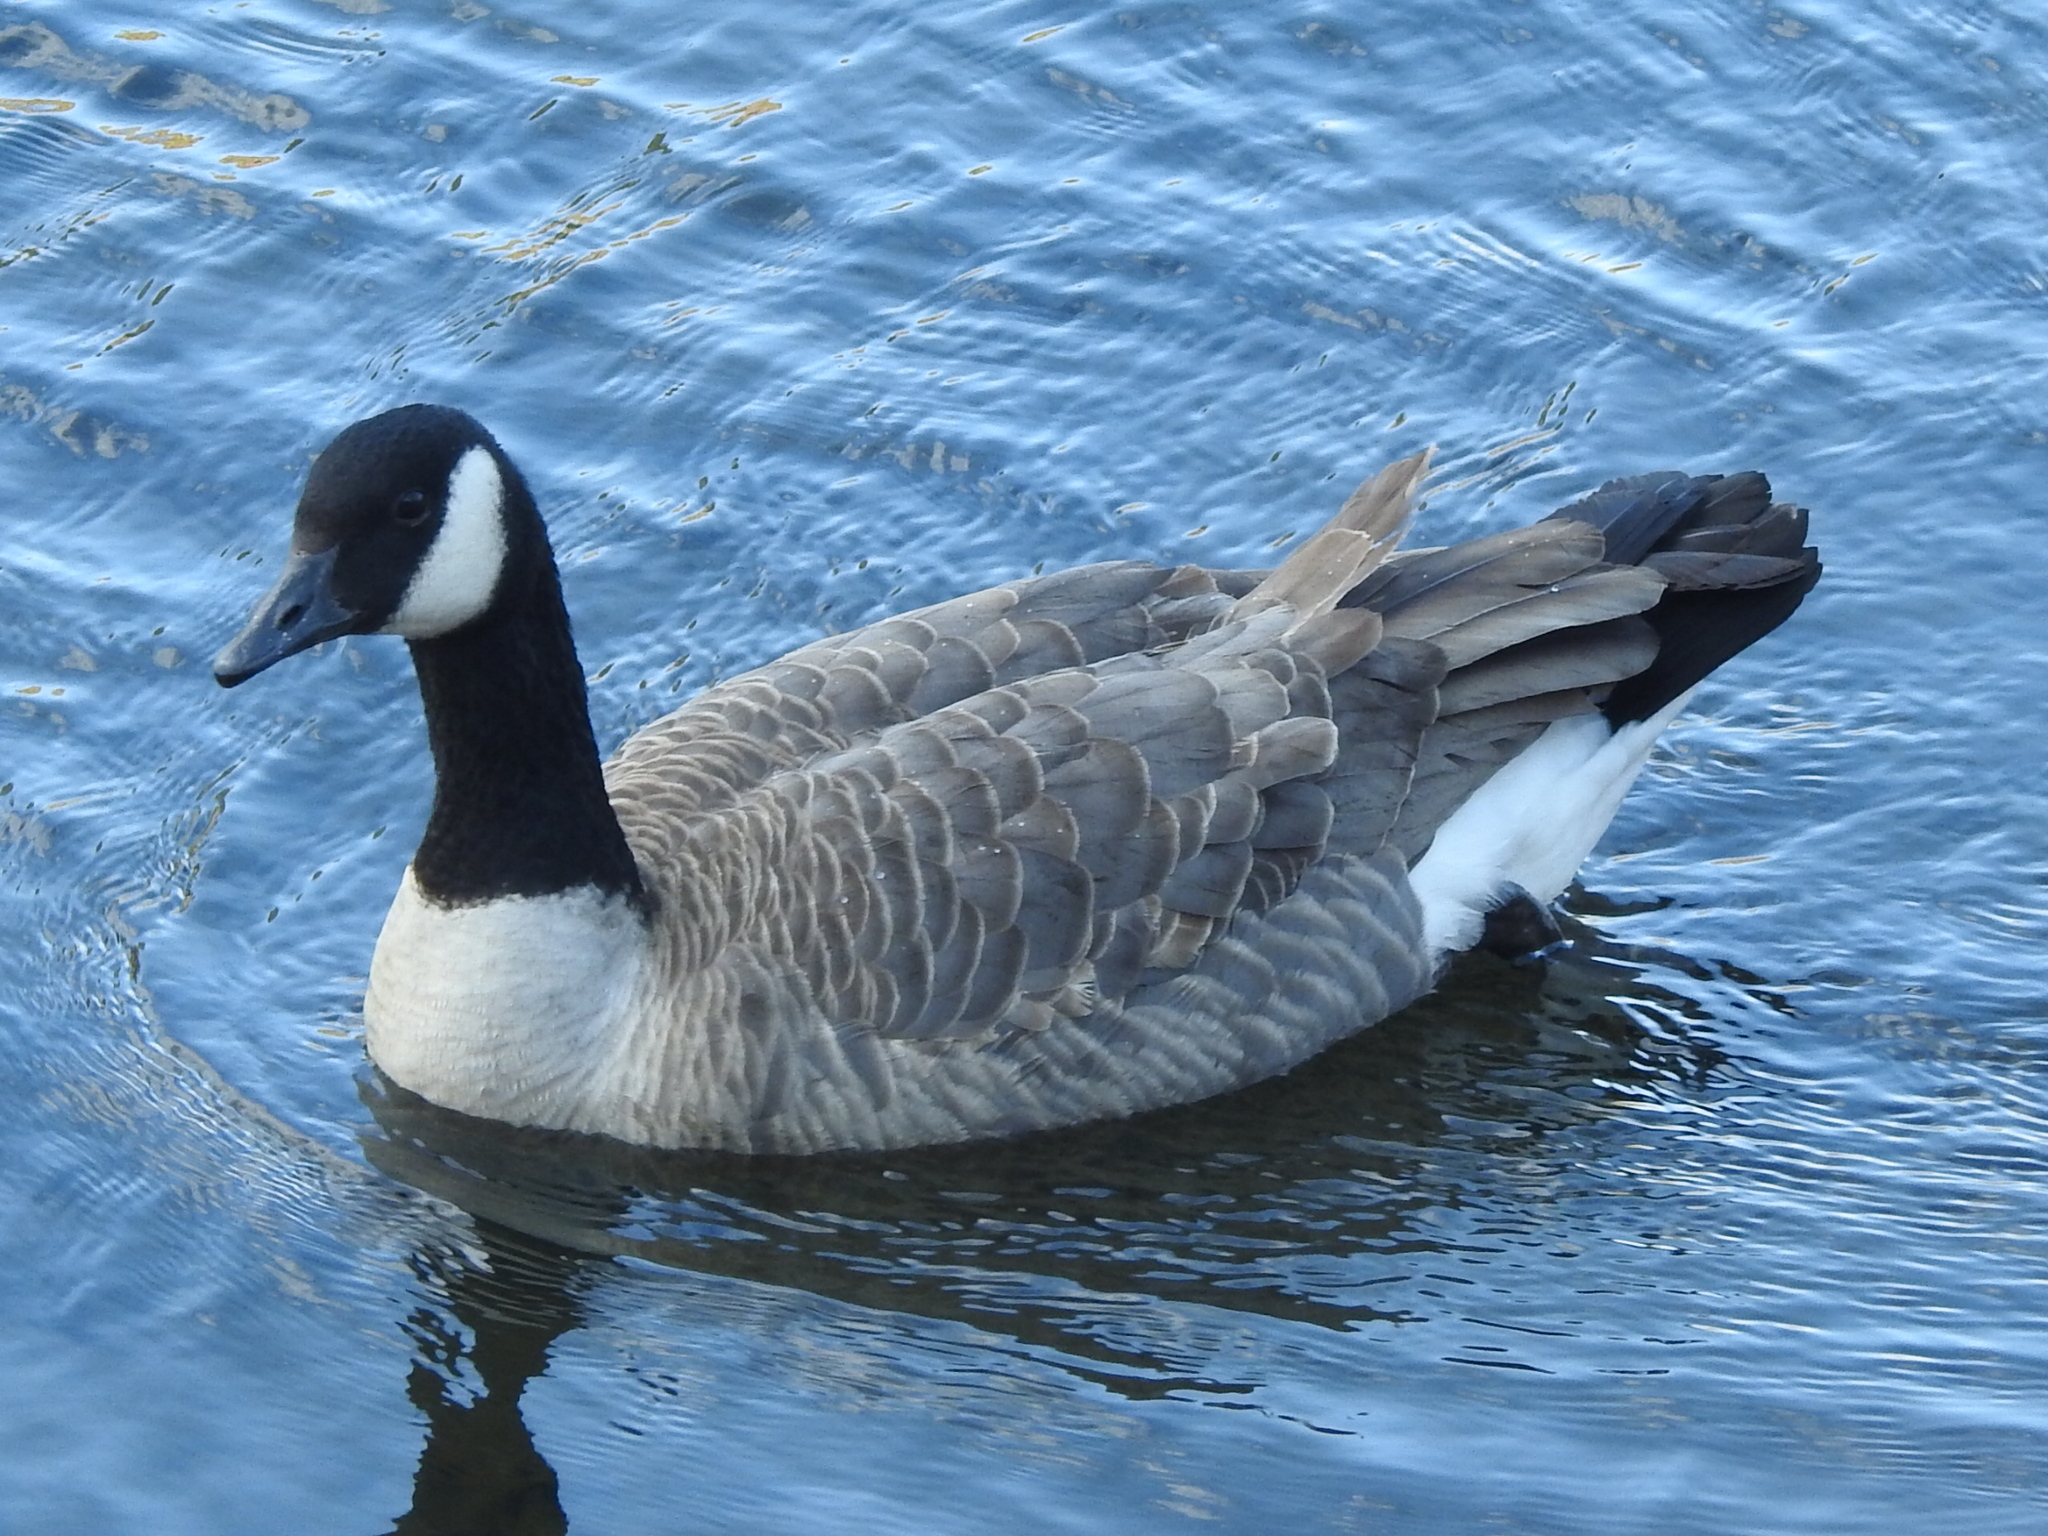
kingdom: Animalia
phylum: Chordata
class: Aves
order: Anseriformes
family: Anatidae
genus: Branta
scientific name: Branta canadensis
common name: Canada goose
